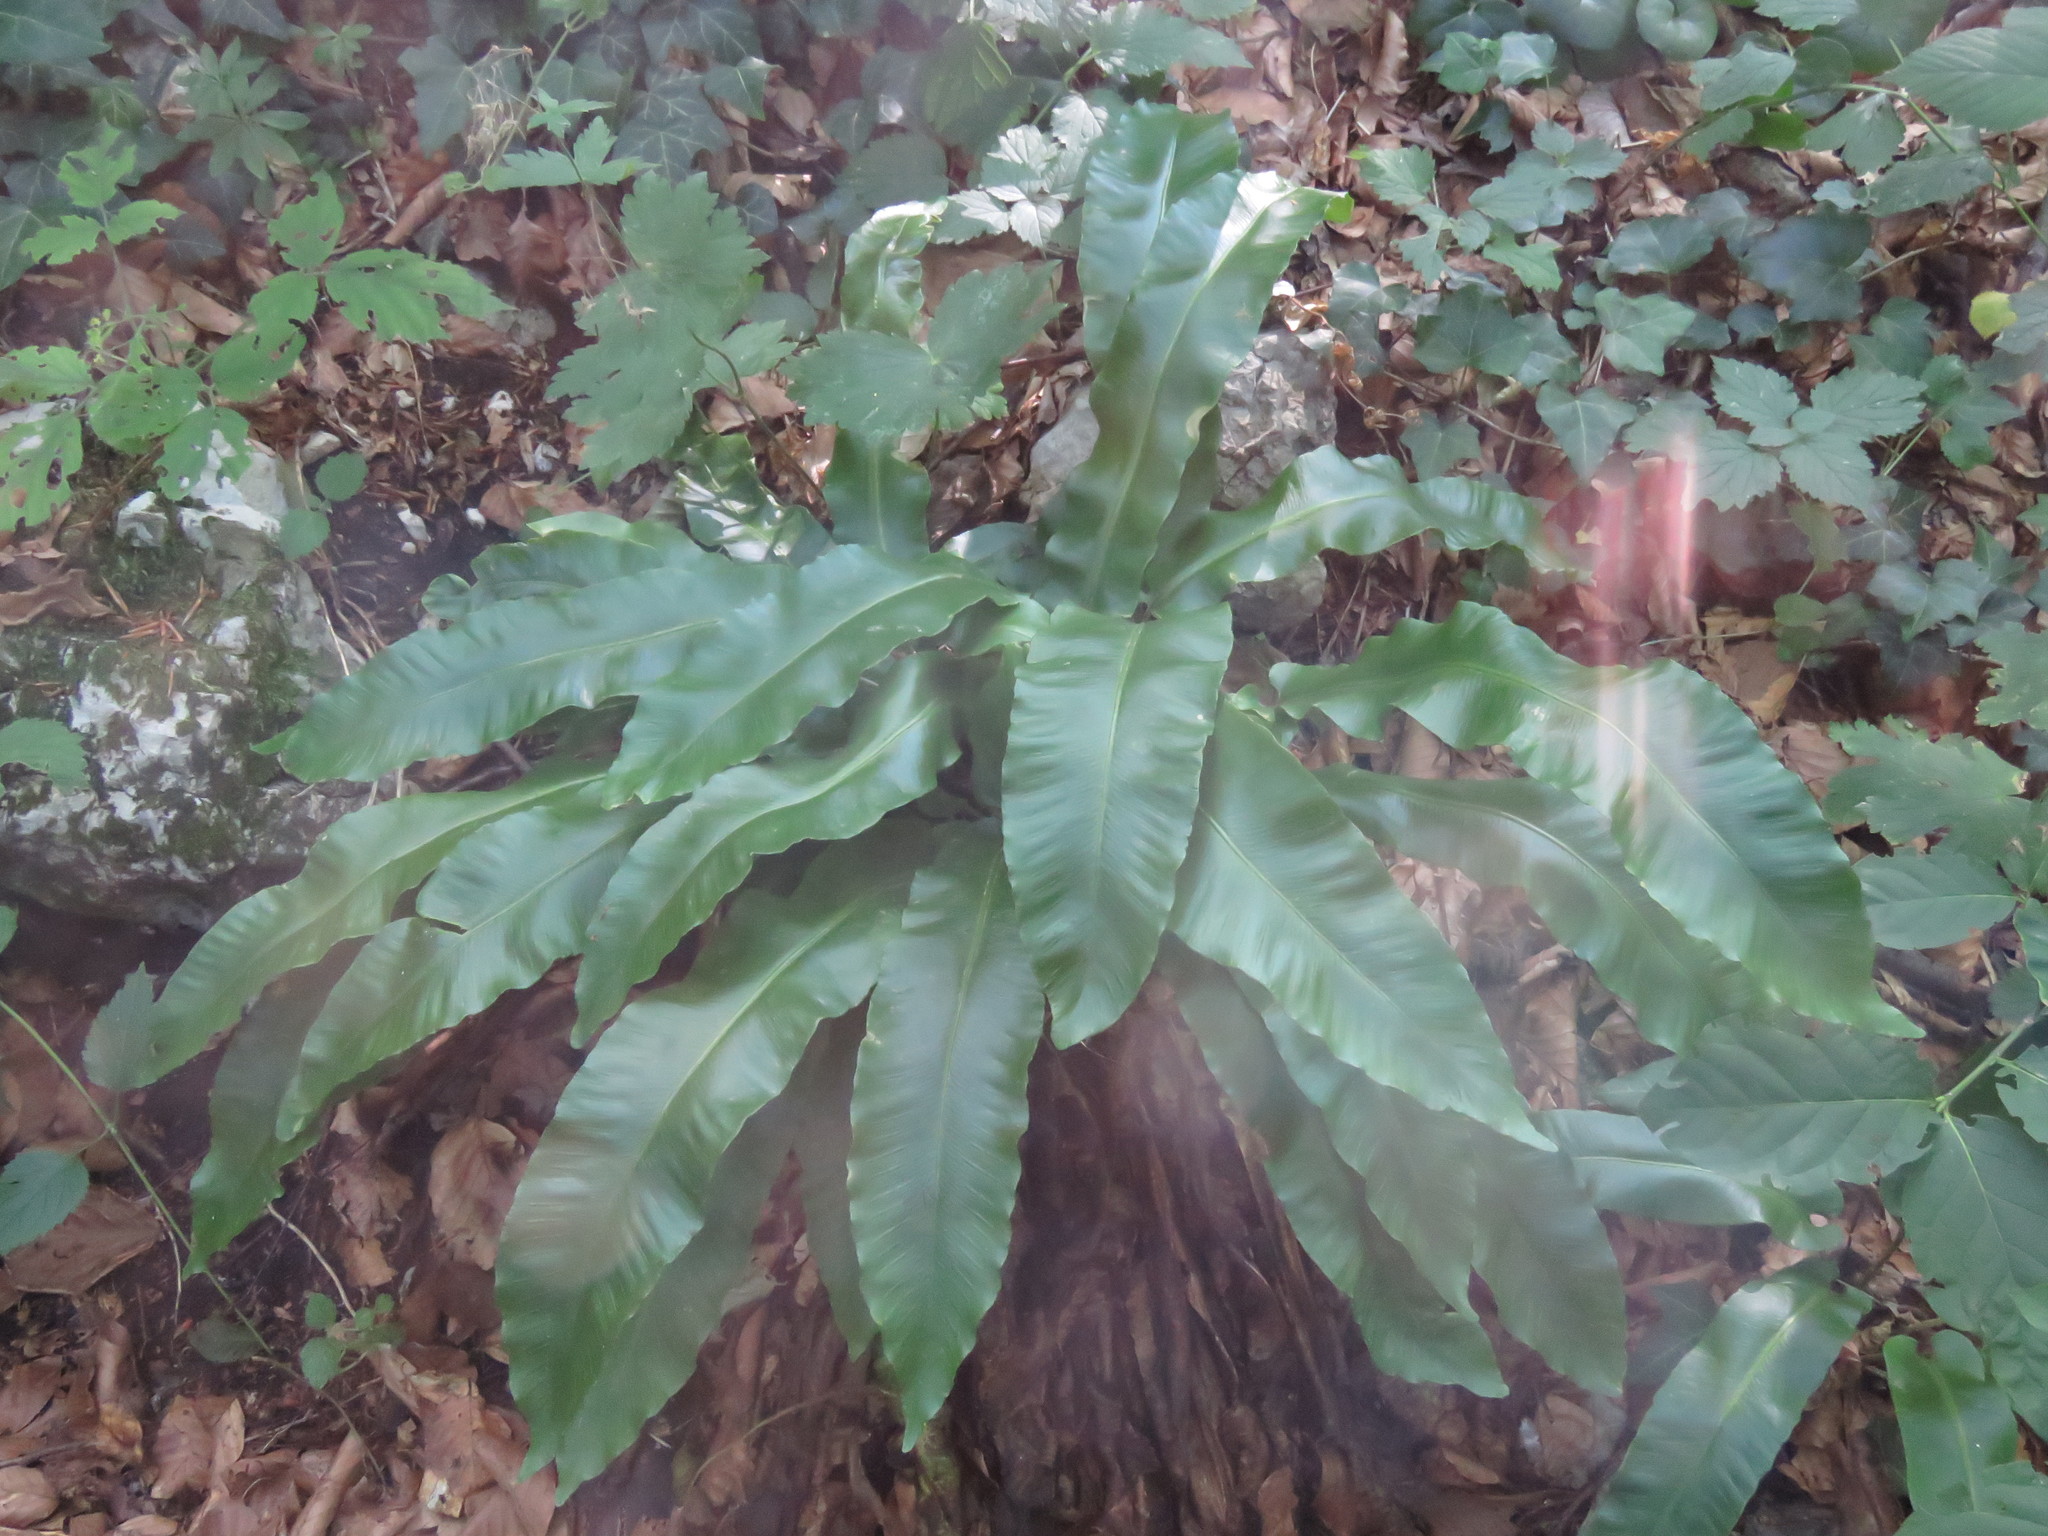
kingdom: Plantae
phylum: Tracheophyta
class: Polypodiopsida
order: Polypodiales
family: Aspleniaceae
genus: Asplenium
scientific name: Asplenium scolopendrium
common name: Hart's-tongue fern
